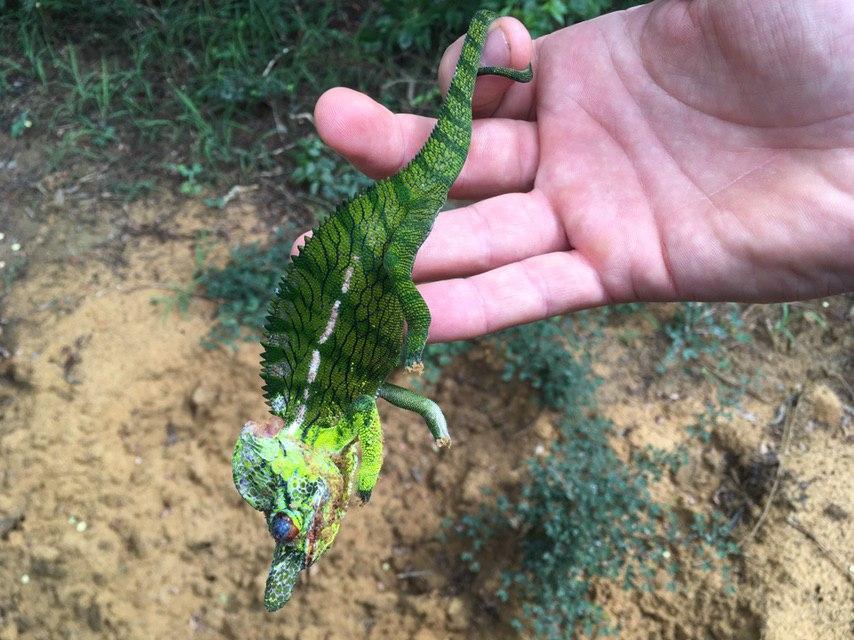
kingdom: Animalia
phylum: Chordata
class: Squamata
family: Chamaeleonidae
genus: Furcifer
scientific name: Furcifer labordi
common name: Laborde's chameleon
